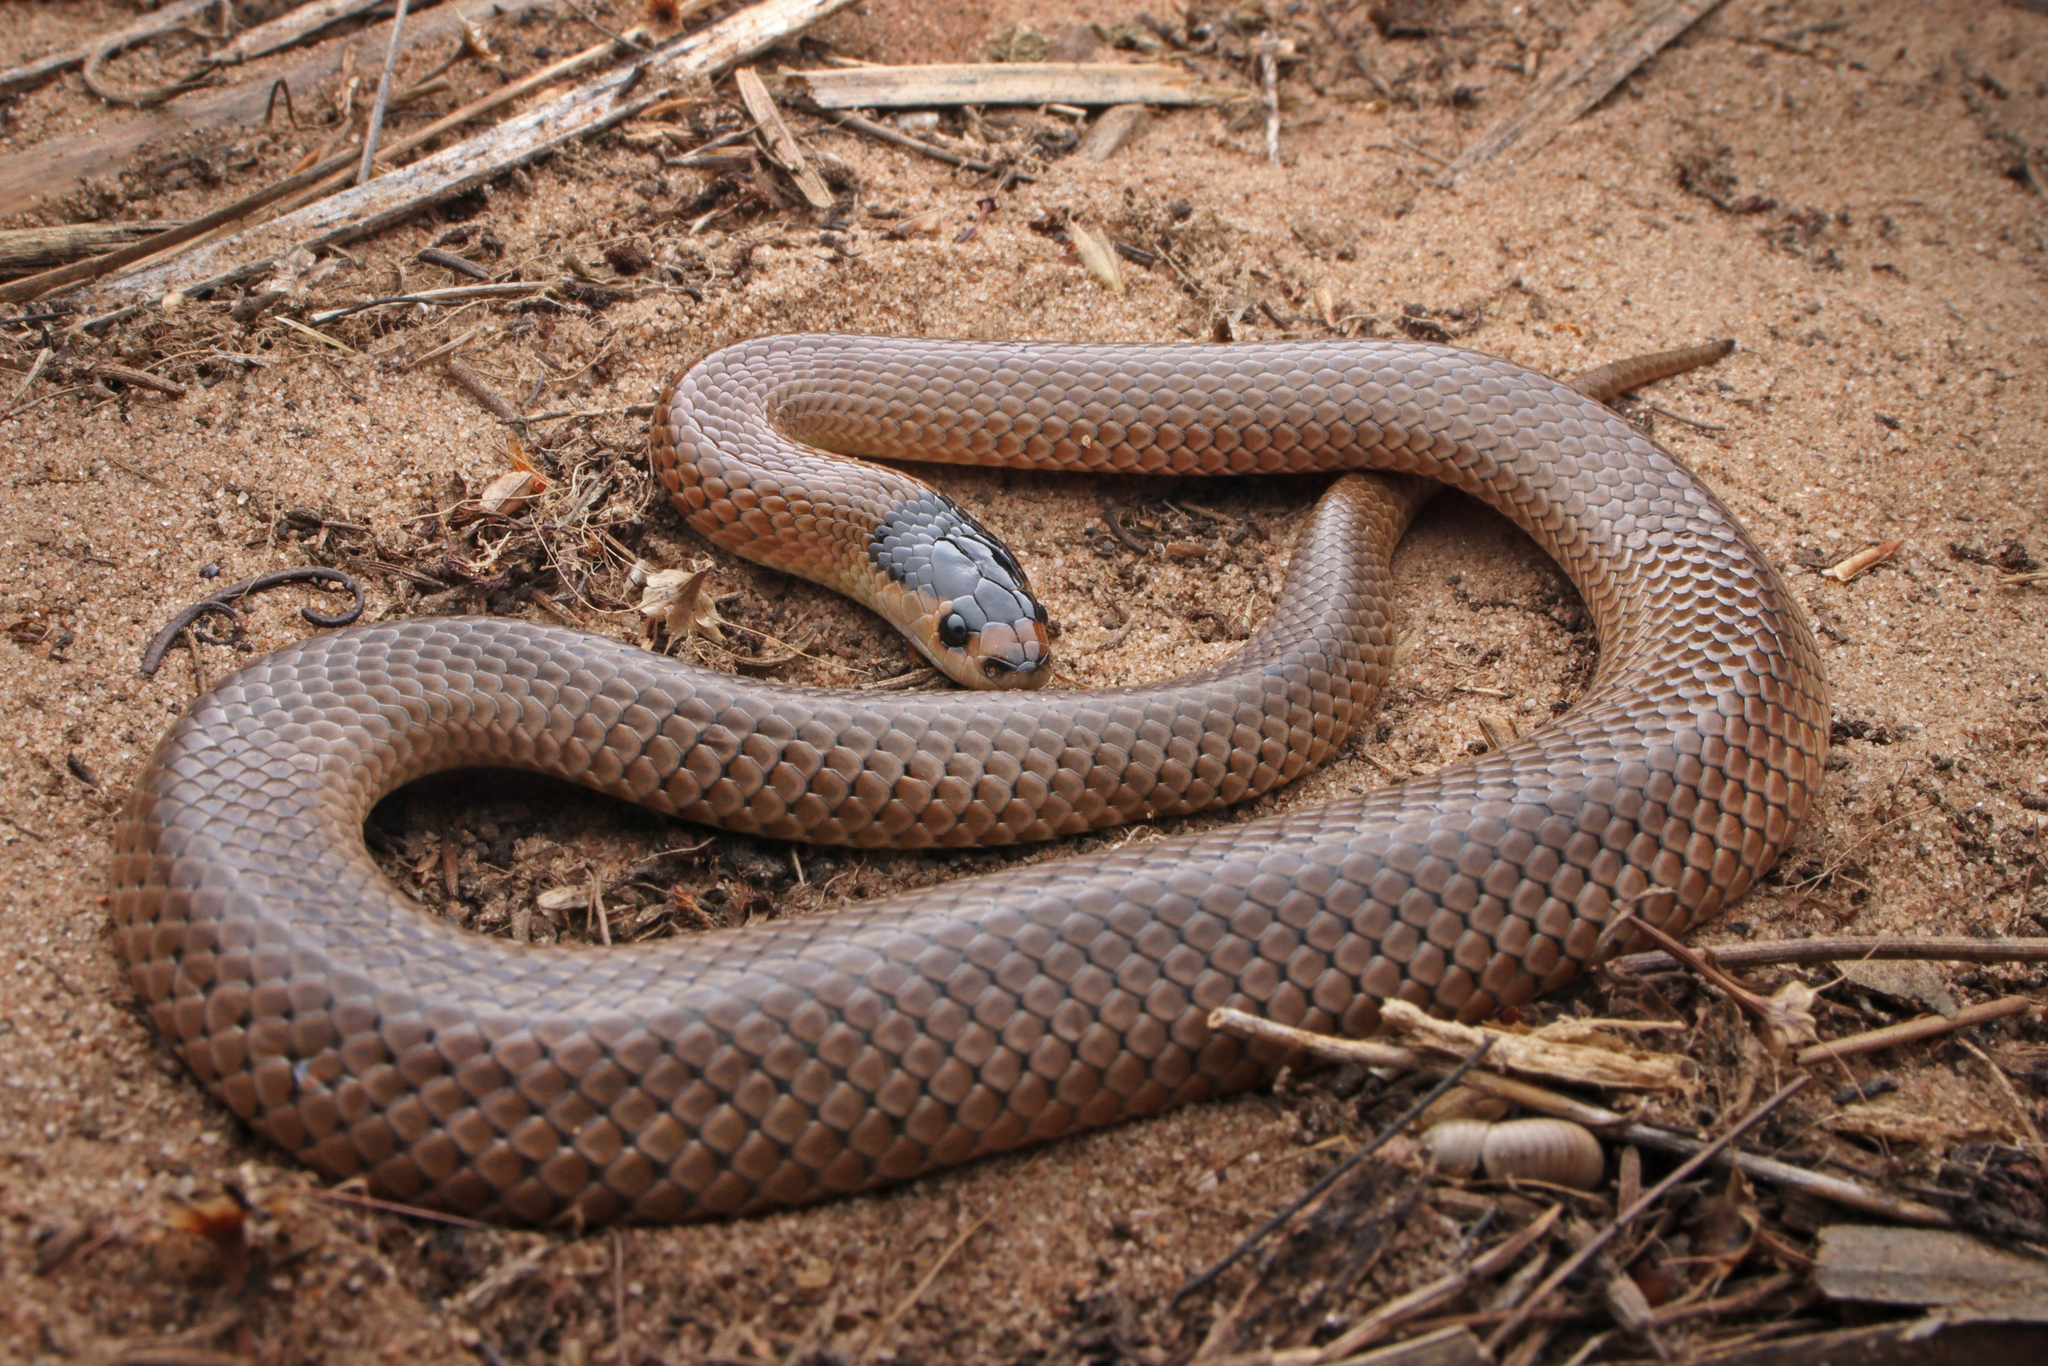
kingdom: Animalia
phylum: Chordata
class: Squamata
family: Elapidae
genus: Suta
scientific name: Suta flagellum
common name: Little whip snake
